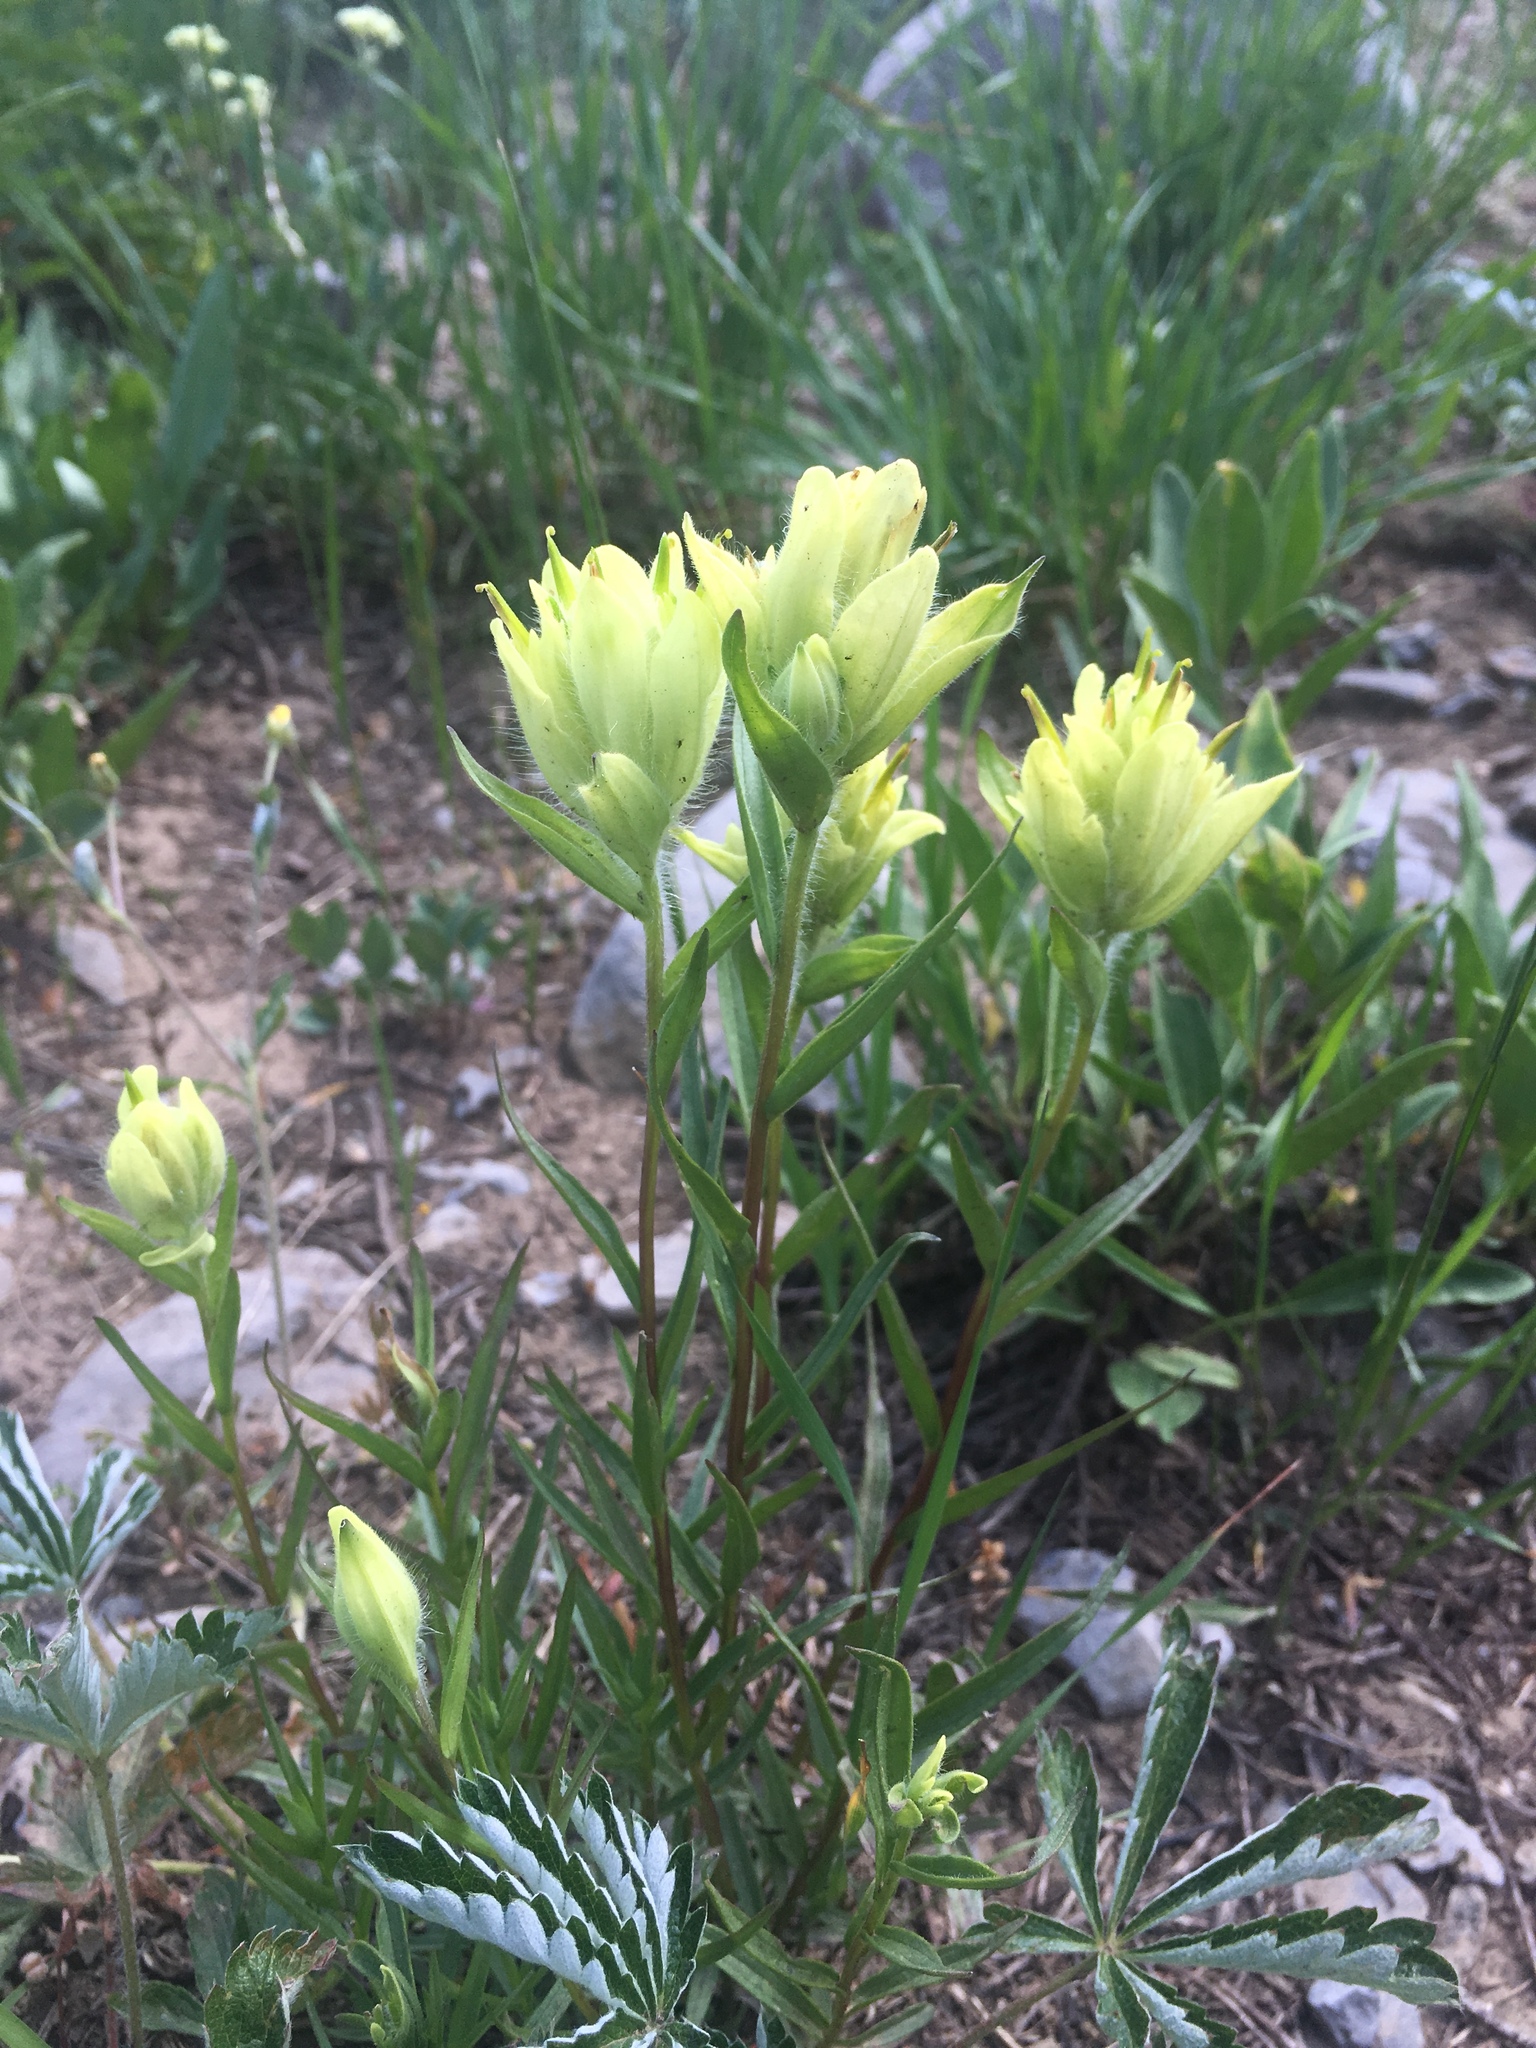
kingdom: Plantae
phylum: Tracheophyta
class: Magnoliopsida
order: Lamiales
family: Orobanchaceae
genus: Castilleja
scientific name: Castilleja occidentalis
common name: Western paintbrush
